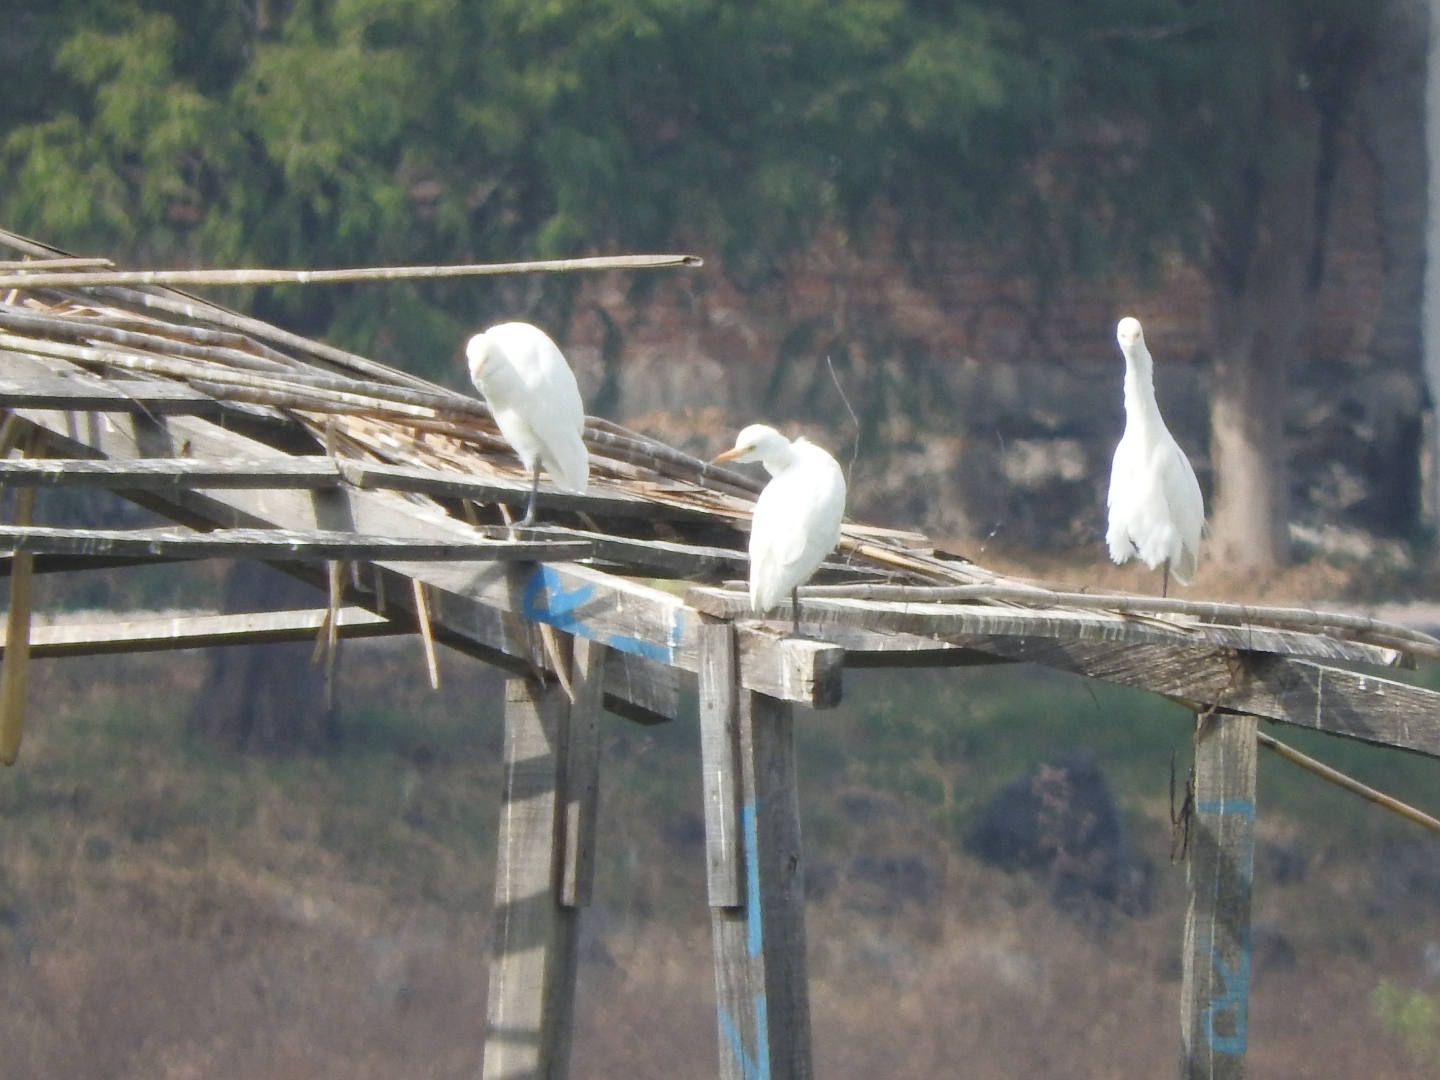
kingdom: Animalia
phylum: Chordata
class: Aves
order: Pelecaniformes
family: Ardeidae
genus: Bubulcus
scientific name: Bubulcus ibis
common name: Cattle egret
